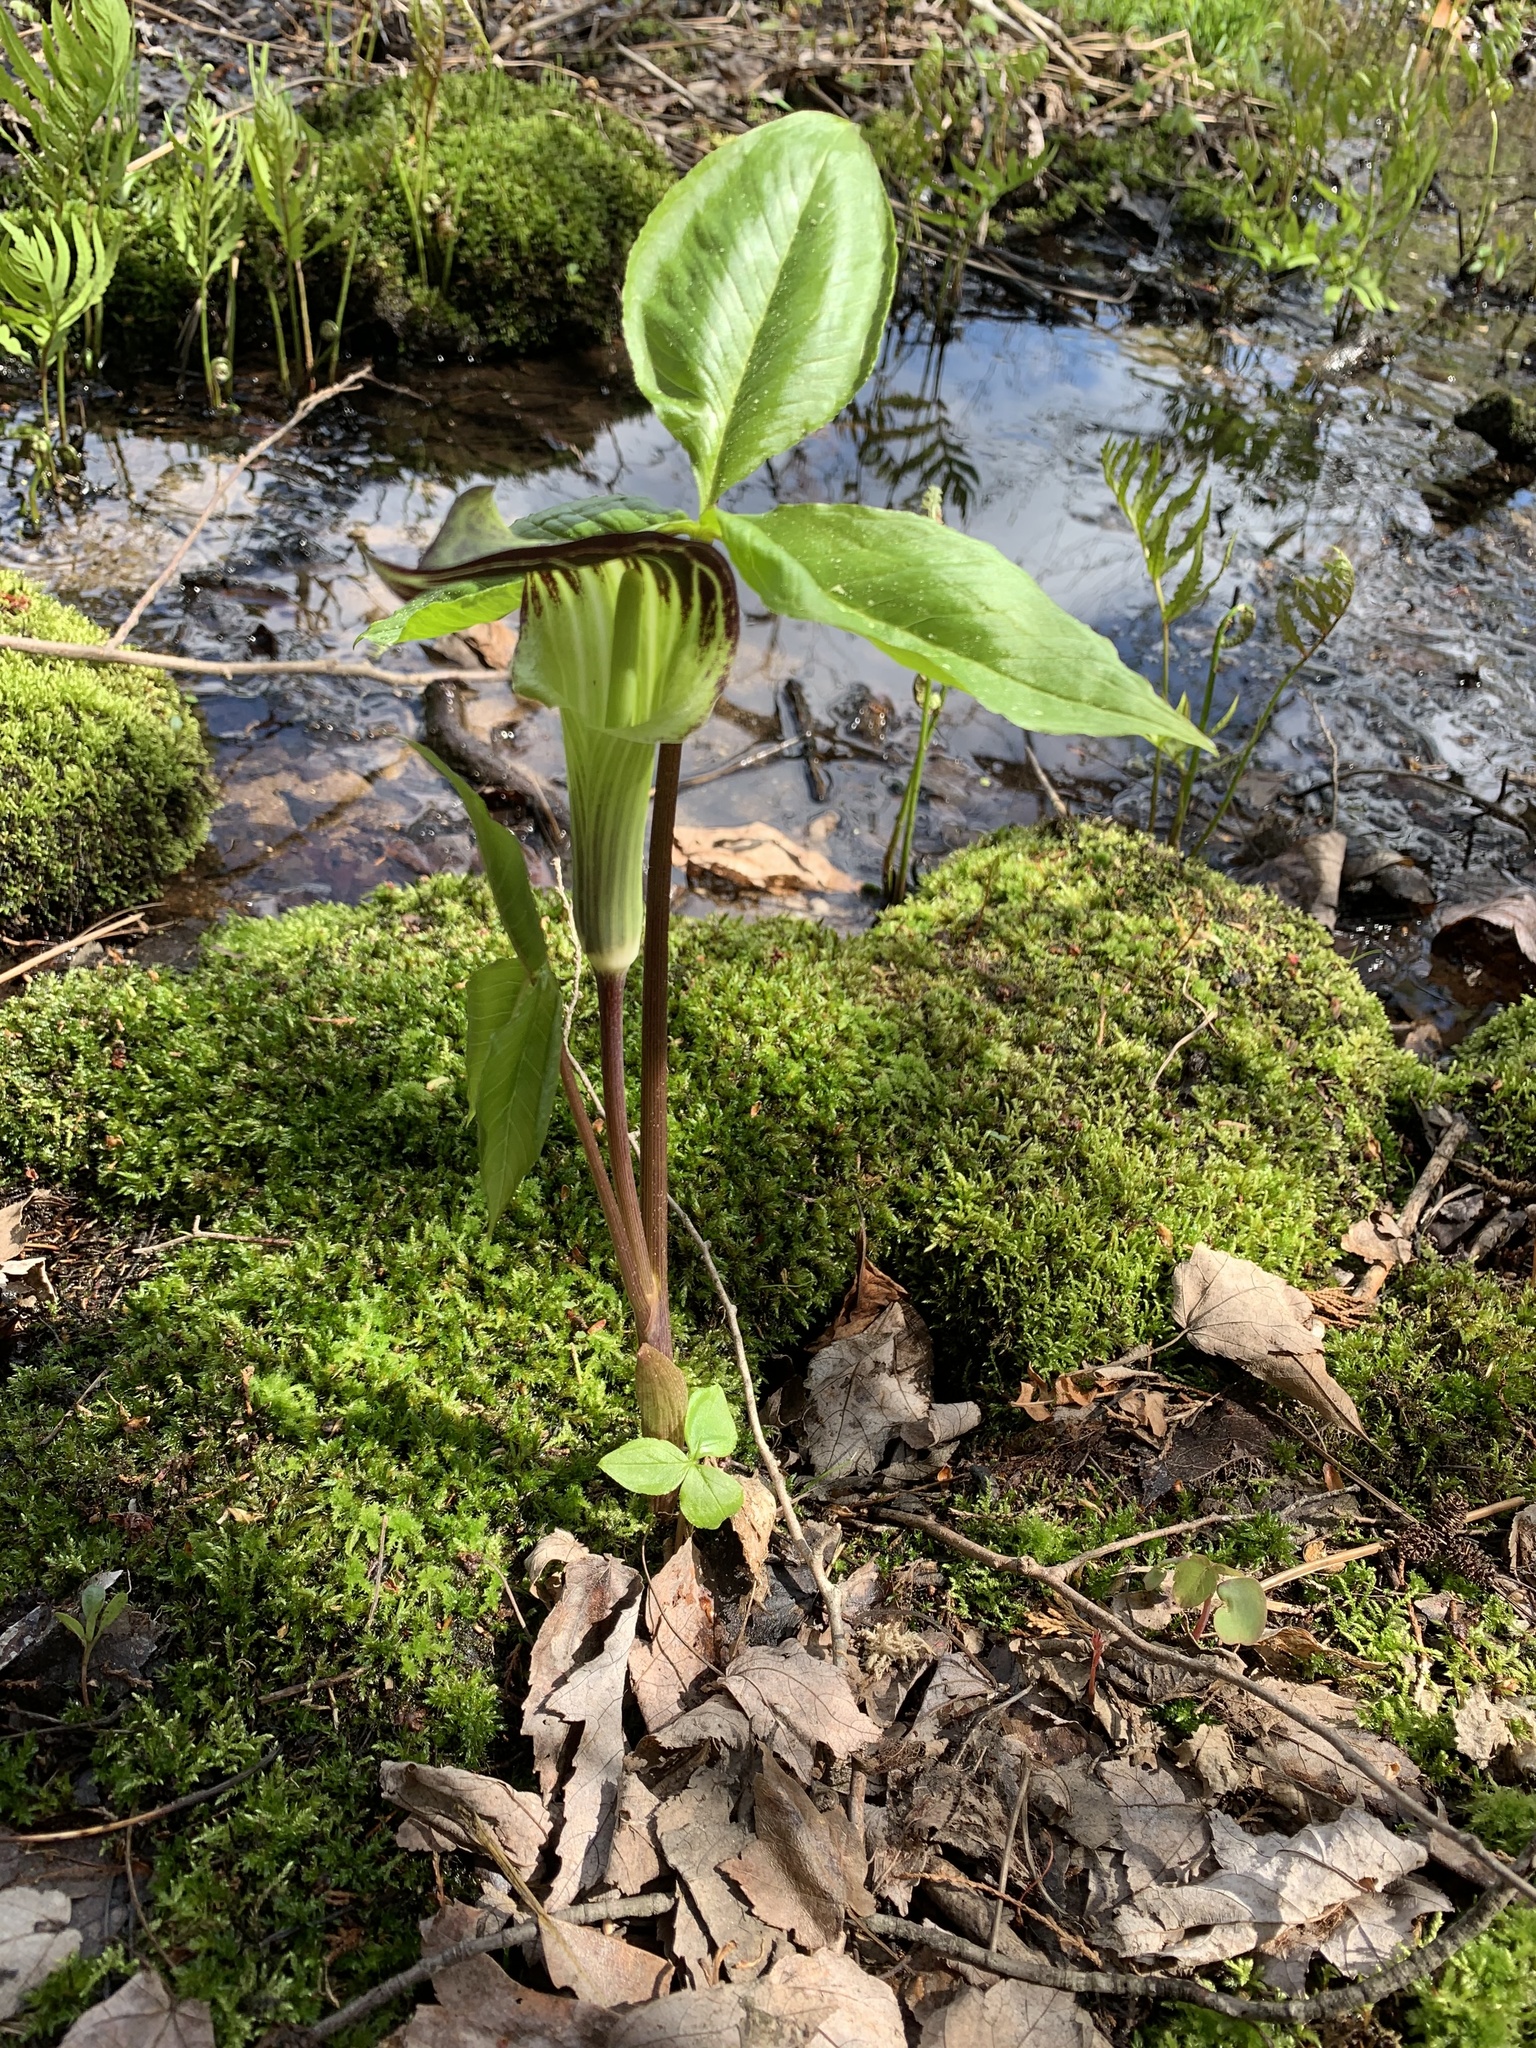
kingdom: Plantae
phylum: Tracheophyta
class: Liliopsida
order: Alismatales
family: Araceae
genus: Arisaema
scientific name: Arisaema triphyllum
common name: Jack-in-the-pulpit
